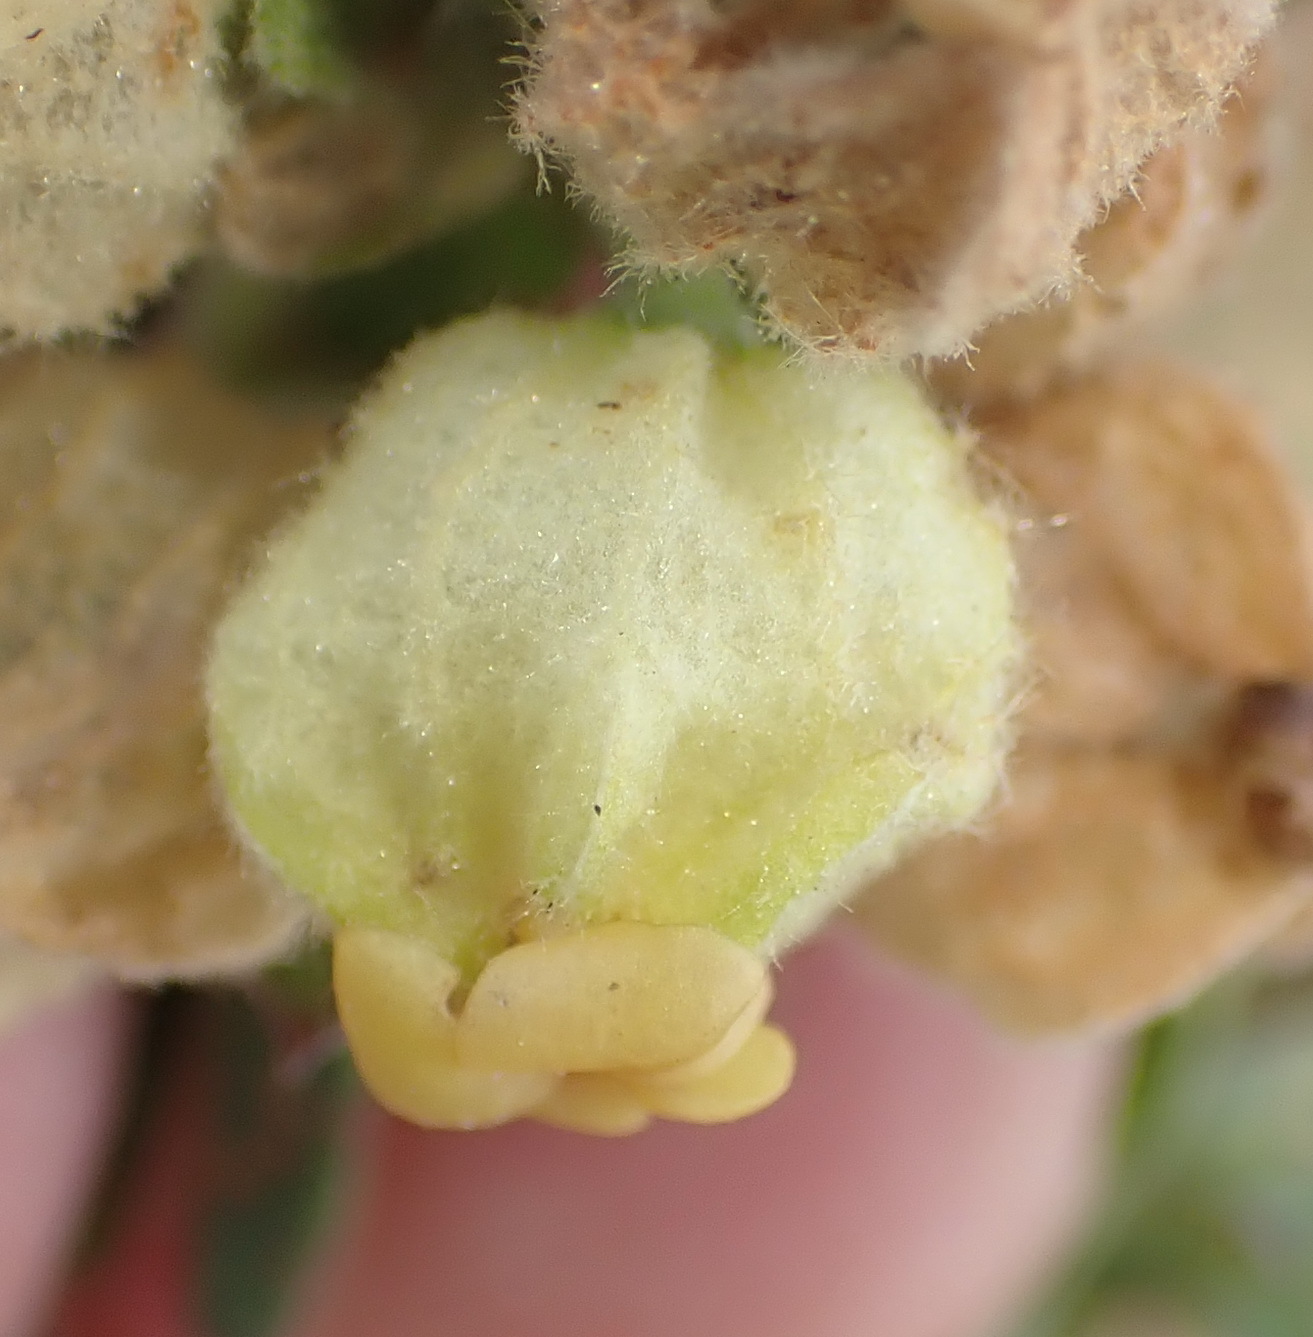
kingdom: Plantae
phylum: Tracheophyta
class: Magnoliopsida
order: Malvales
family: Malvaceae
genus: Hermannia
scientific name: Hermannia hyssopifolia
